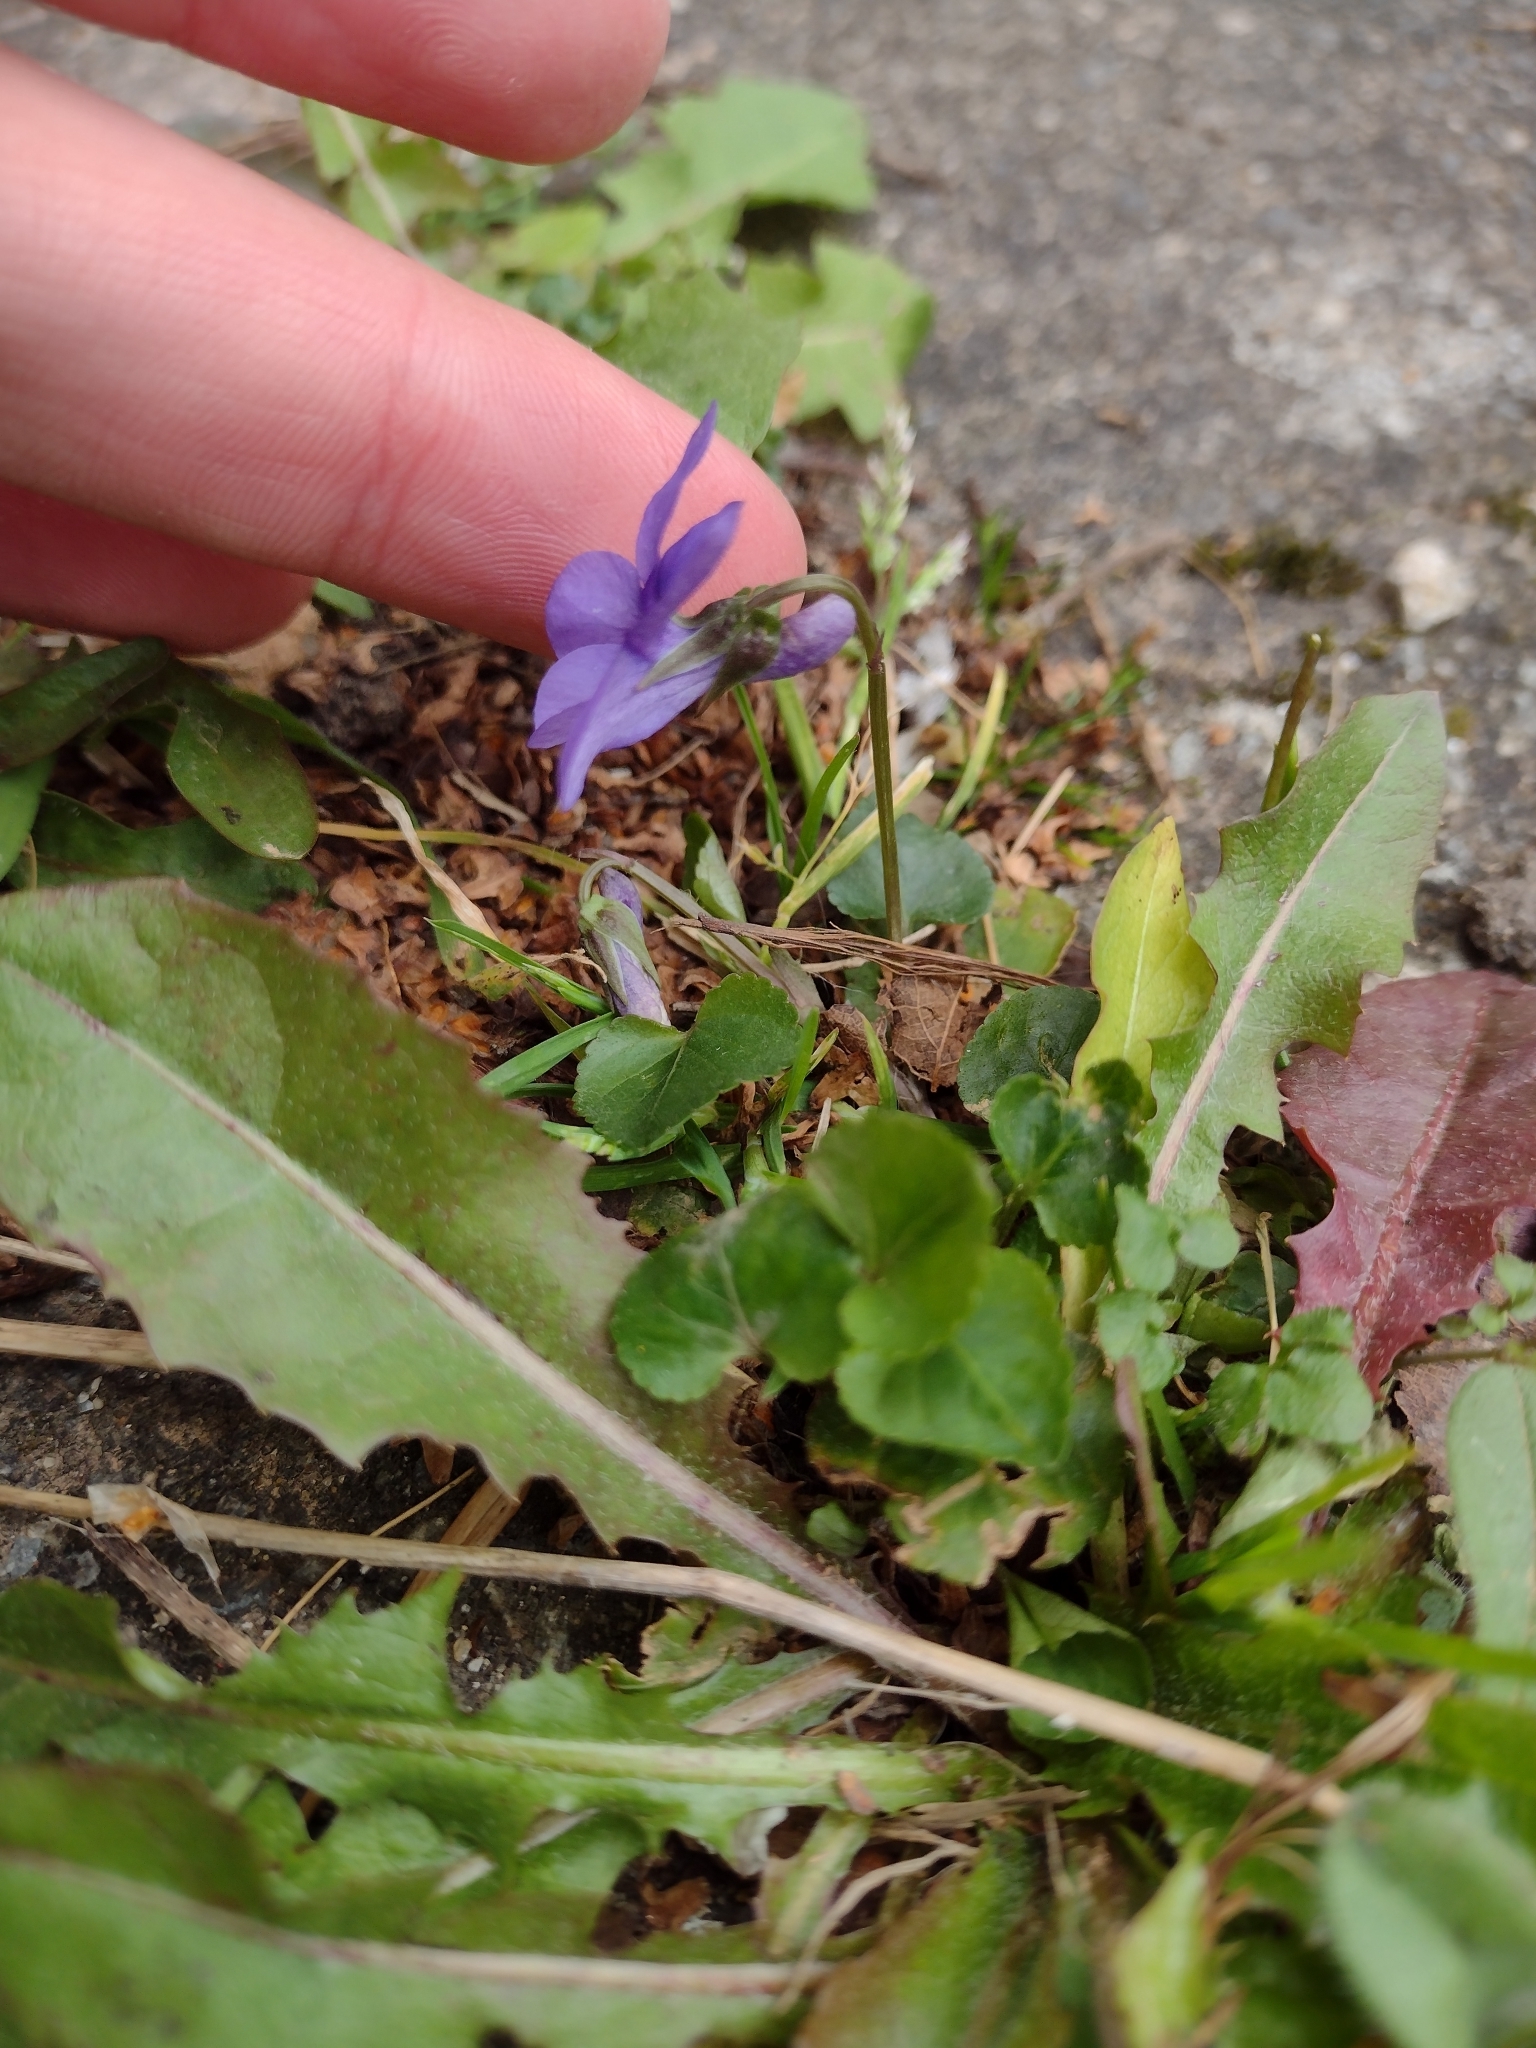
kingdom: Plantae
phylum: Tracheophyta
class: Magnoliopsida
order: Malpighiales
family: Violaceae
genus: Viola
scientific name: Viola reichenbachiana
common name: Early dog-violet
